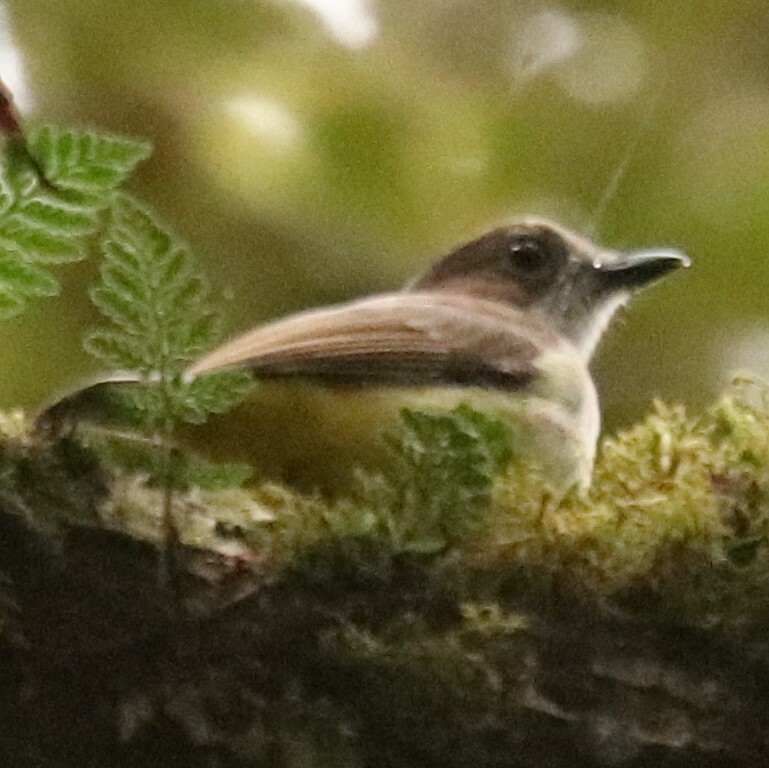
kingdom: Animalia
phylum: Chordata
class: Aves
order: Passeriformes
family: Pachycephalidae
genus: Pachycephala
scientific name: Pachycephala sulfuriventer
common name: Sulphur-vented whistler
